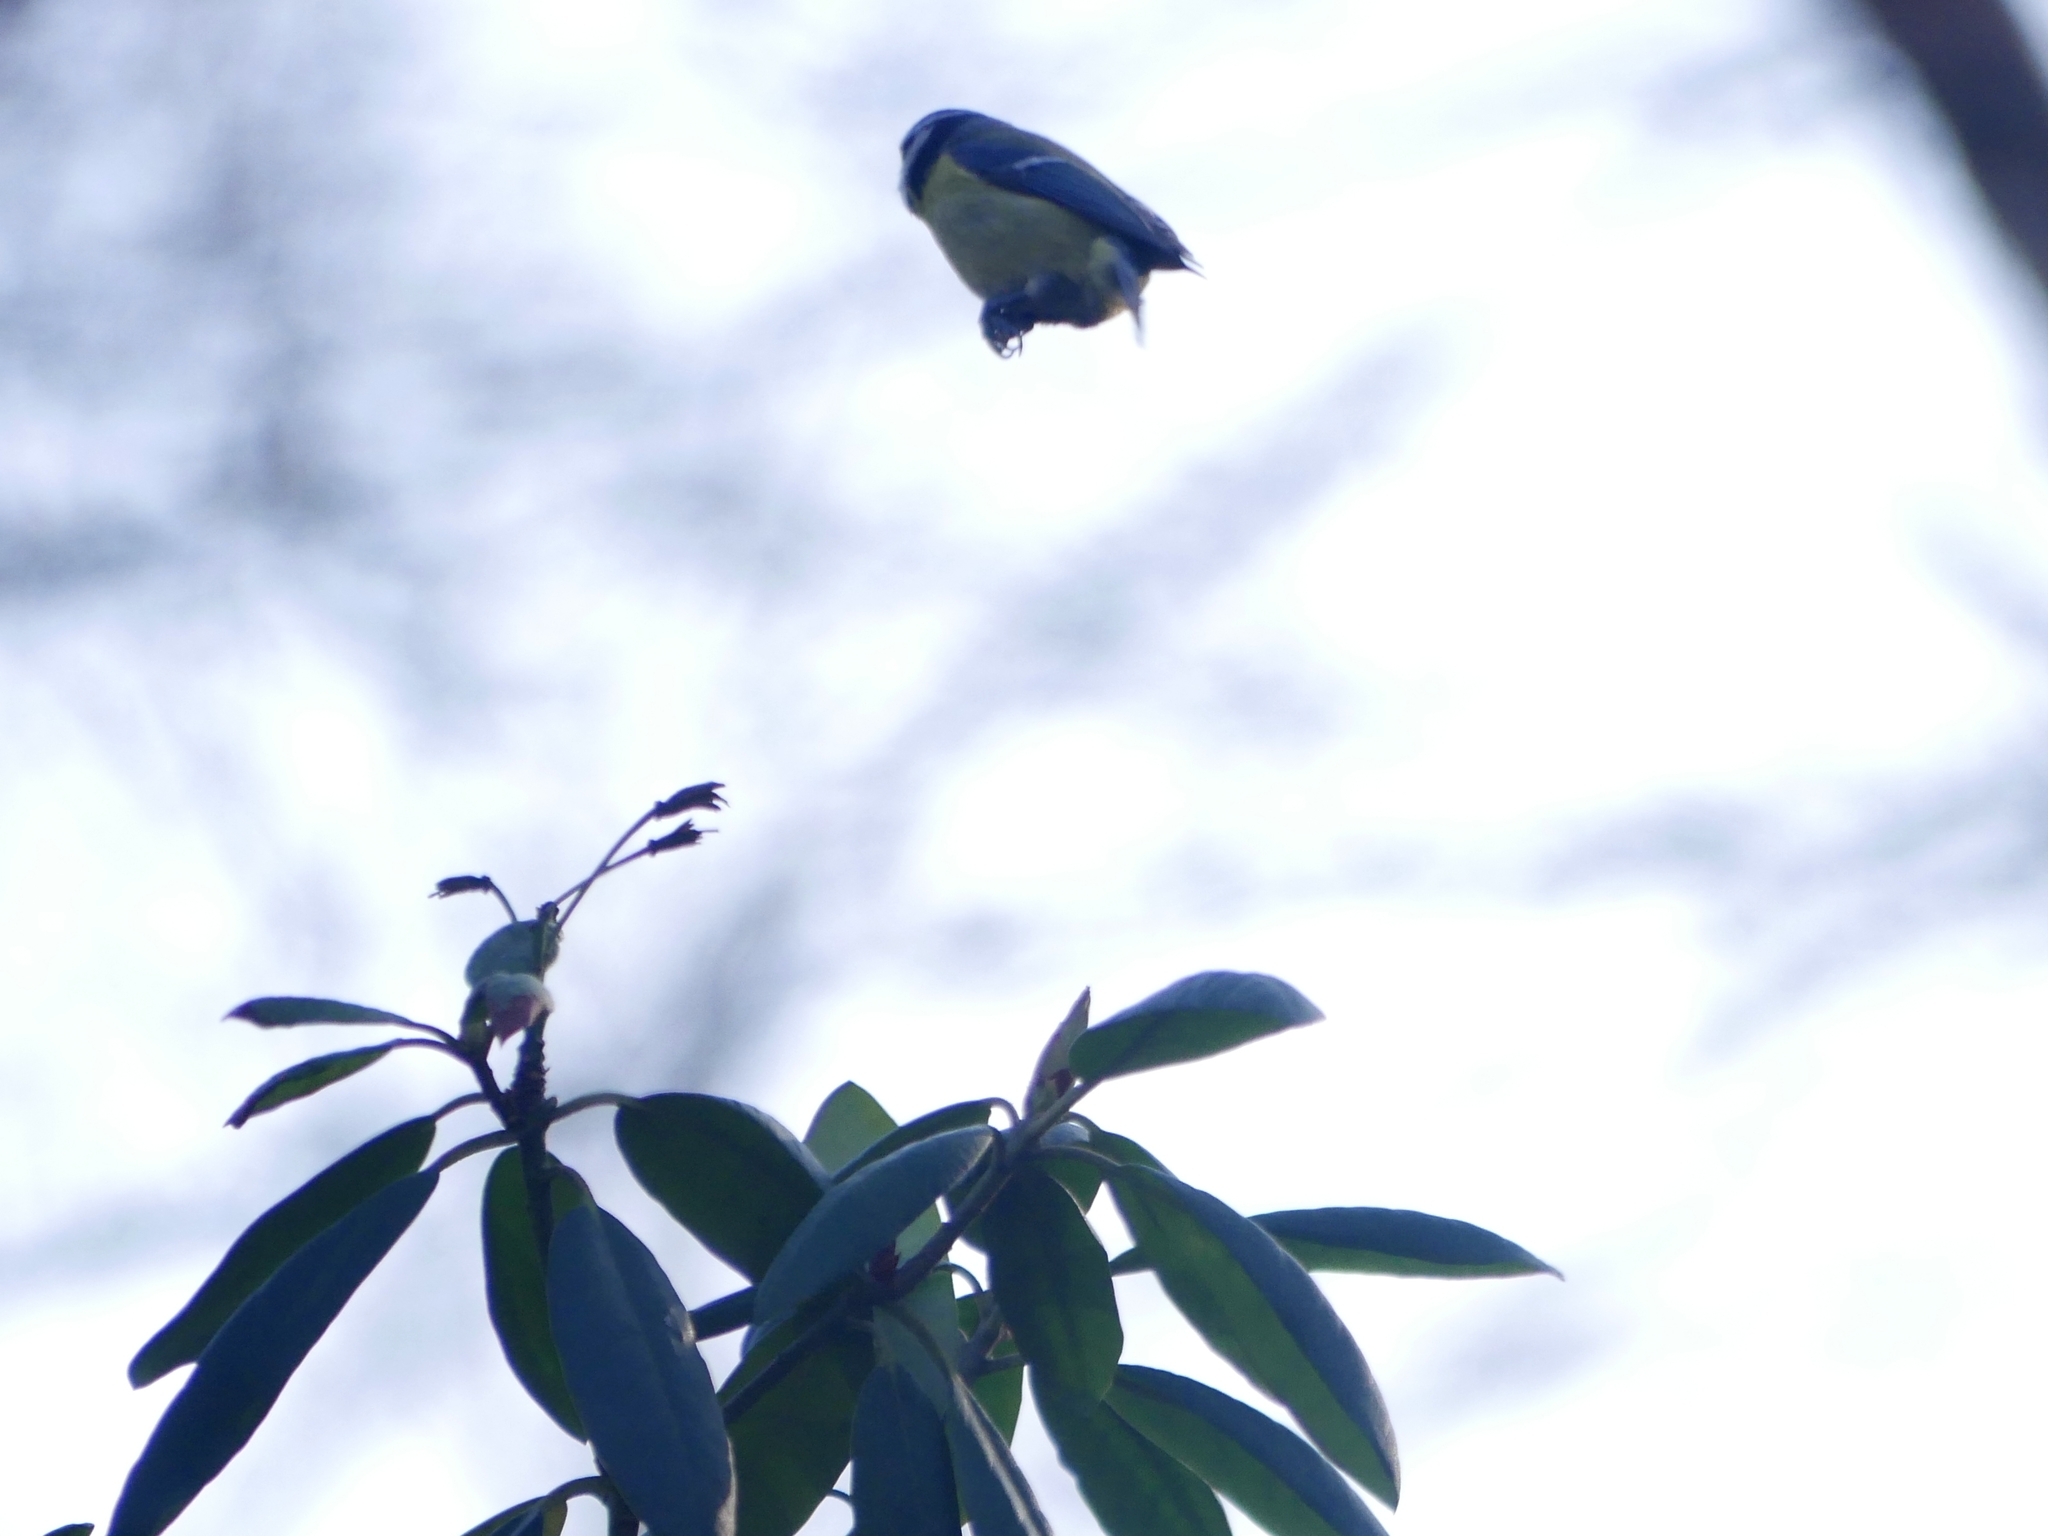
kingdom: Animalia
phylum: Chordata
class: Aves
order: Passeriformes
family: Paridae
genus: Cyanistes
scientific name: Cyanistes caeruleus
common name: Eurasian blue tit
